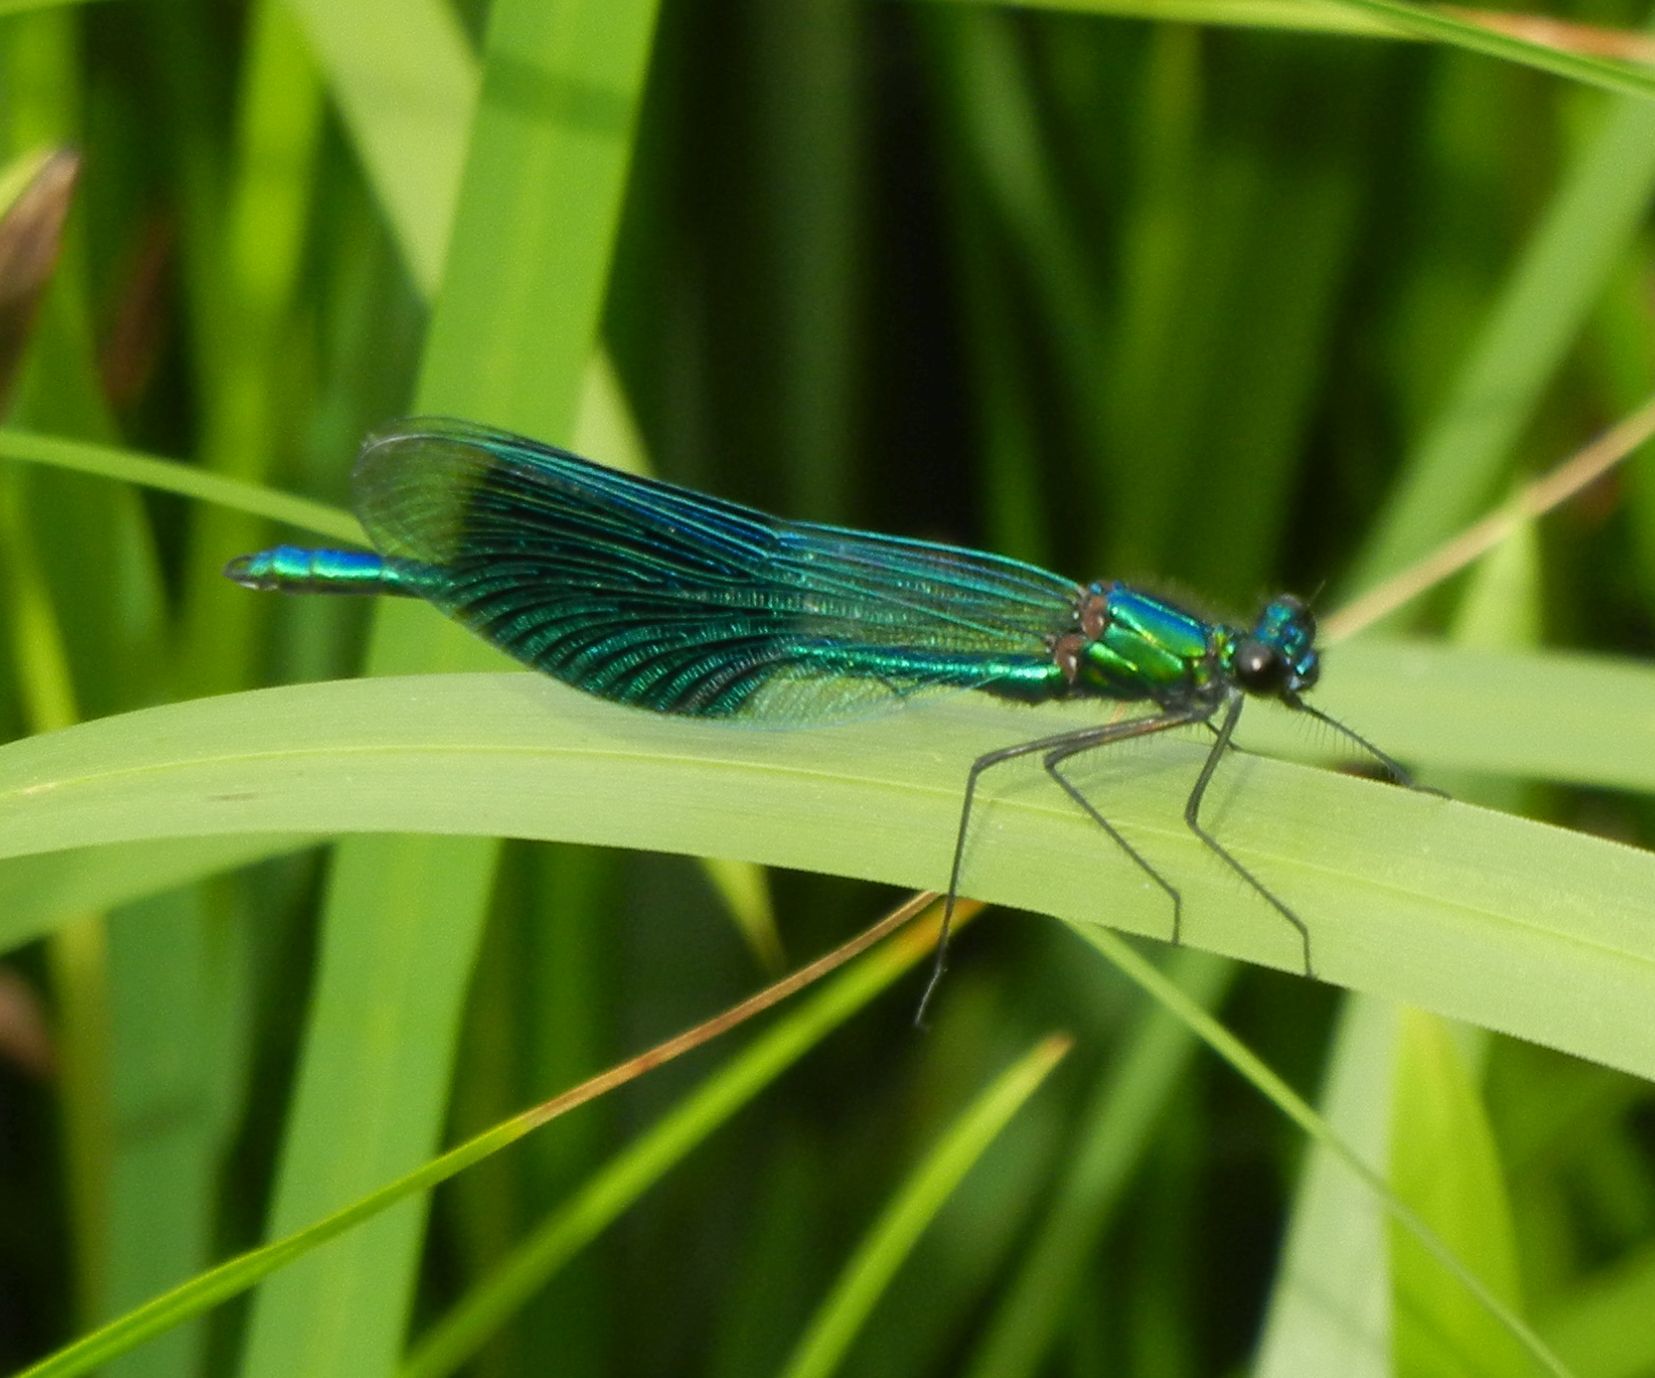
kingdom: Animalia
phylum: Arthropoda
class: Insecta
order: Odonata
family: Calopterygidae
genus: Calopteryx
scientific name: Calopteryx splendens
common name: Banded demoiselle
